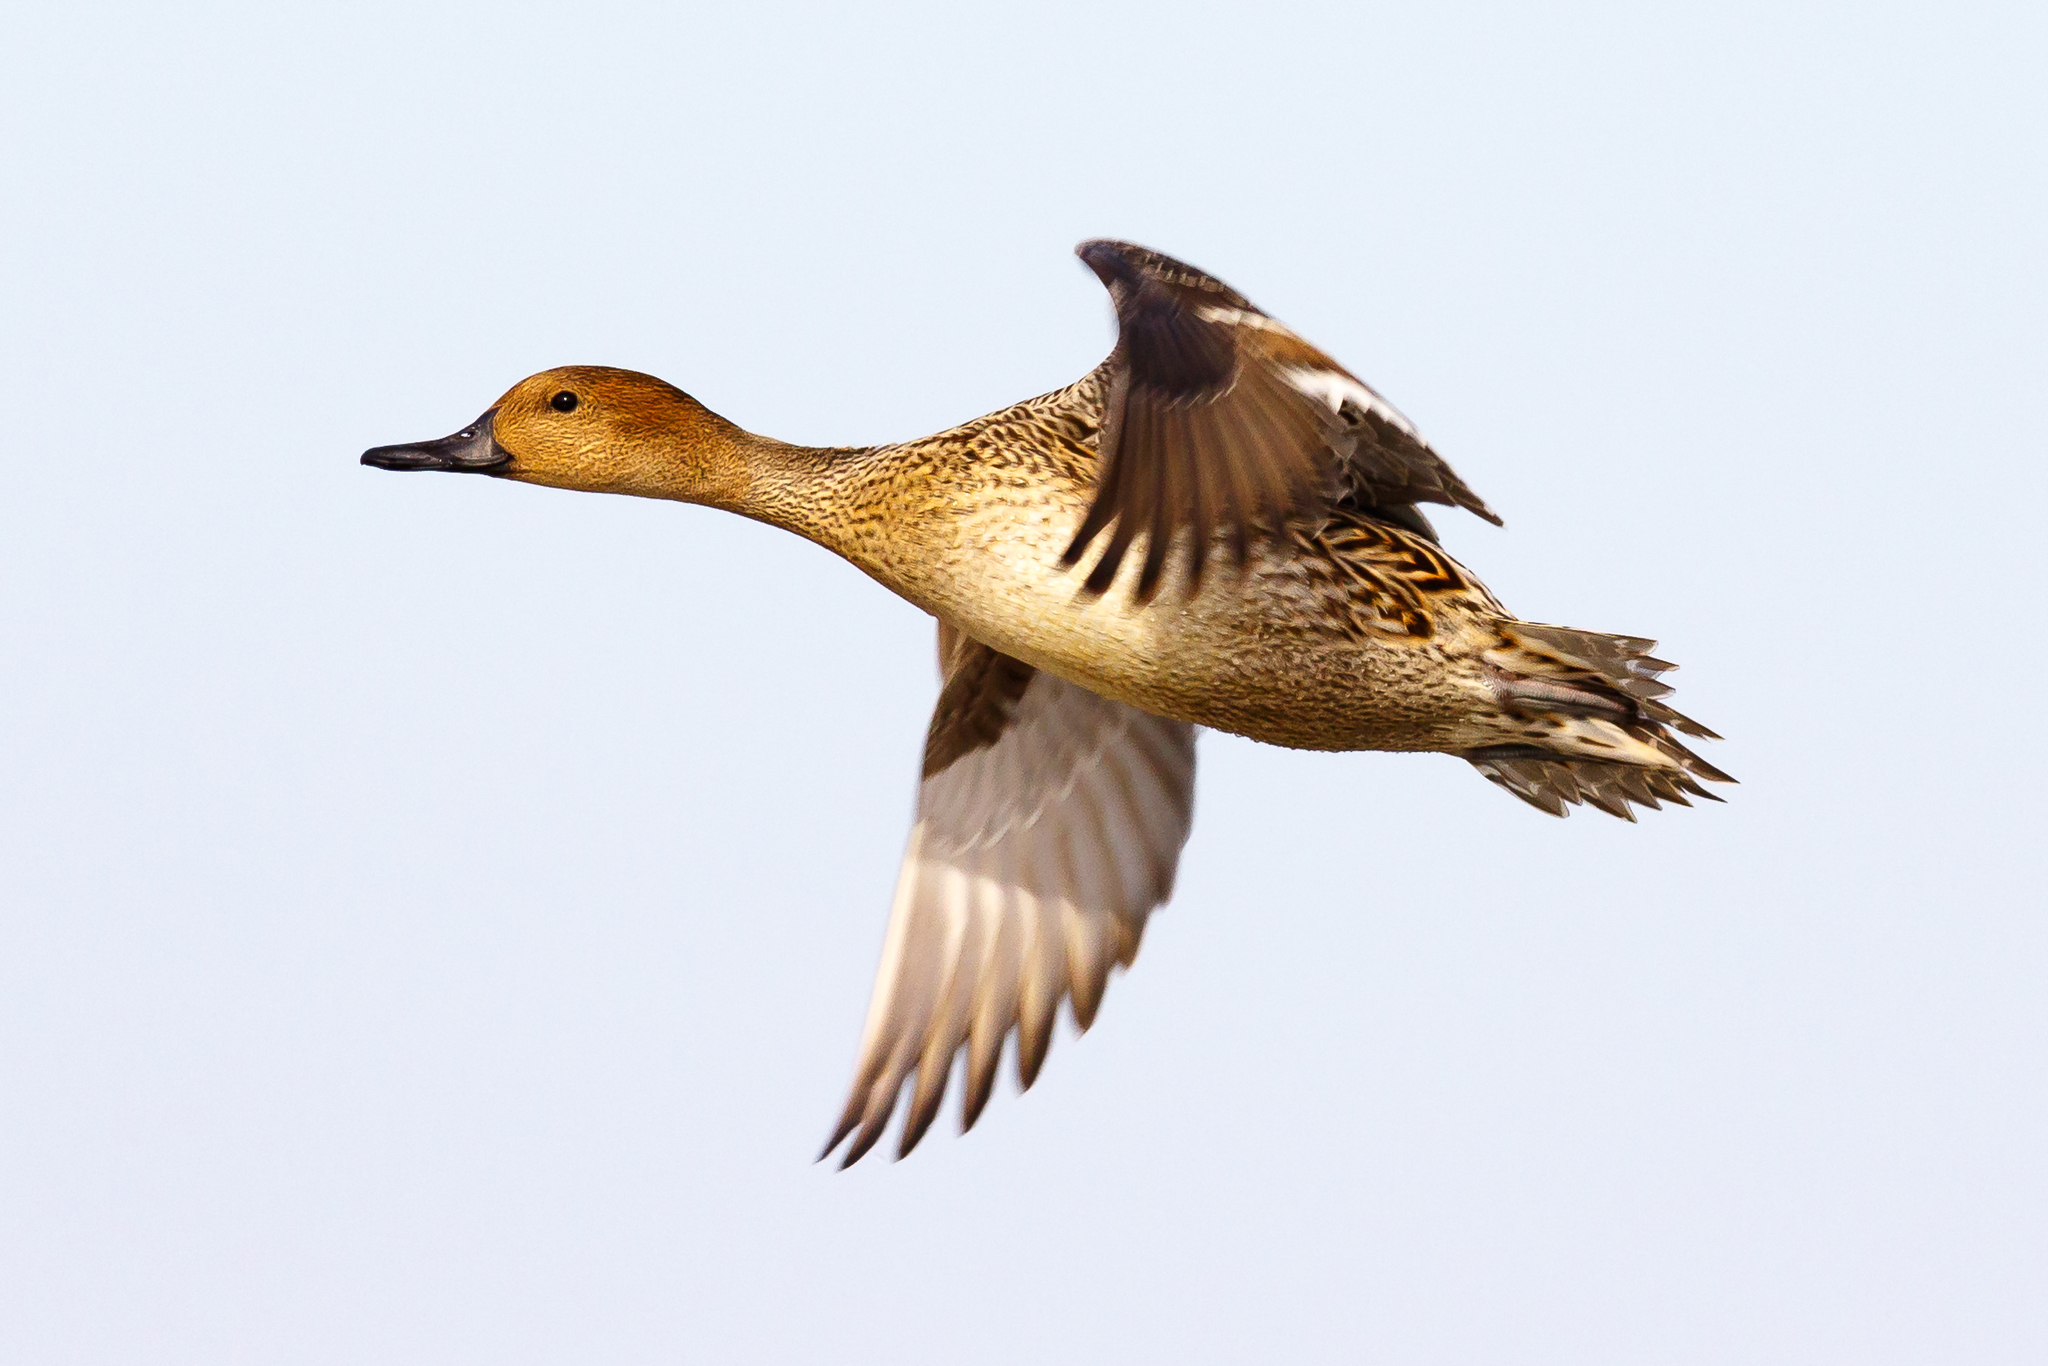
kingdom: Animalia
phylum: Chordata
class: Aves
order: Anseriformes
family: Anatidae
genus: Anas
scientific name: Anas acuta
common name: Northern pintail
